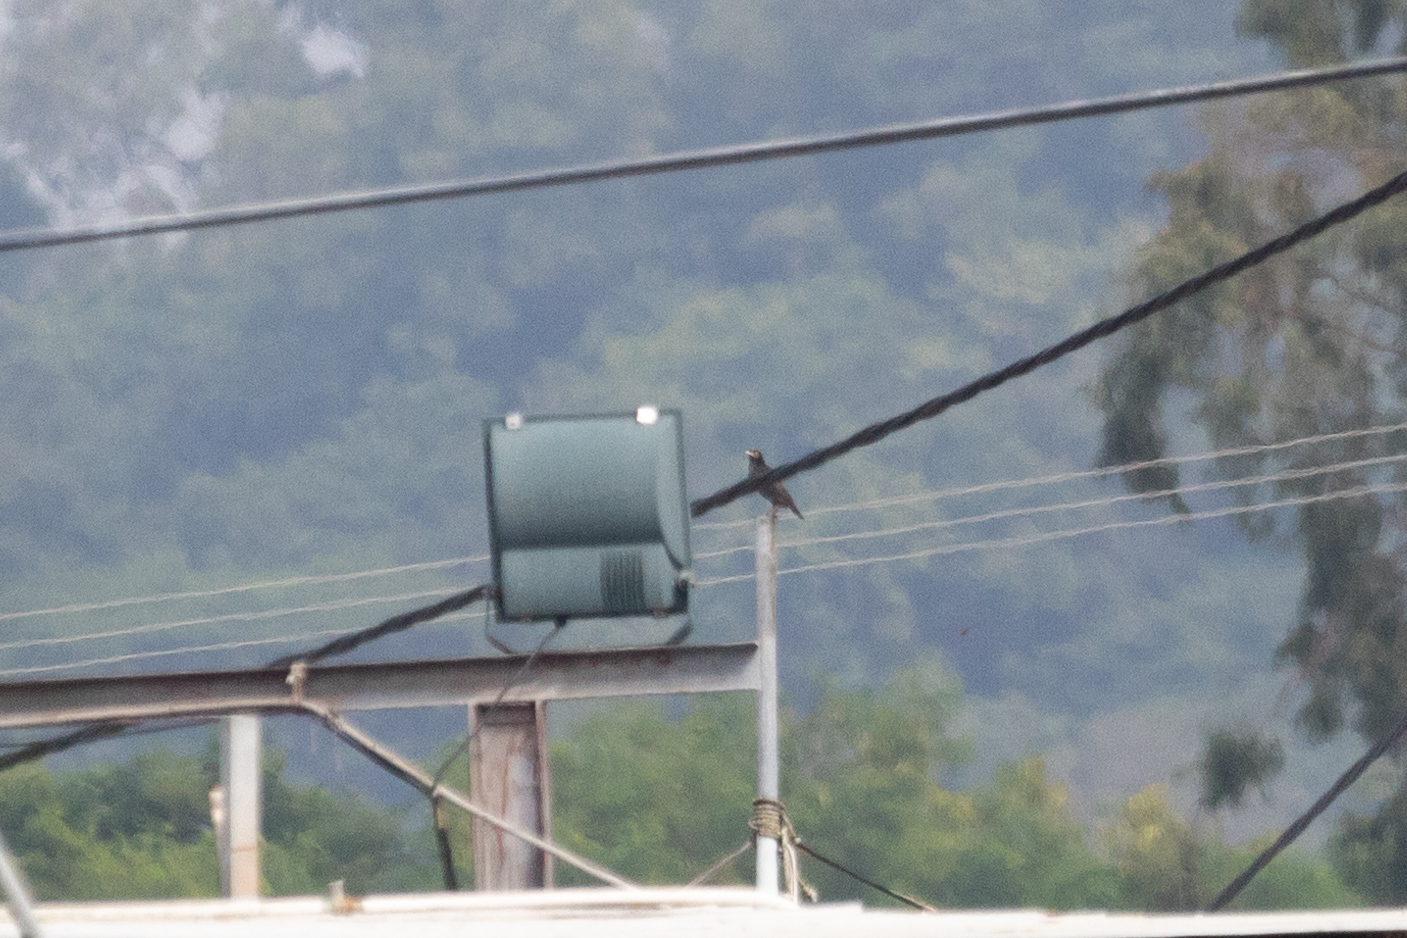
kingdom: Animalia
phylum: Chordata
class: Aves
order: Passeriformes
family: Sturnidae
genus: Acridotheres
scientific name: Acridotheres cristatellus
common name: Crested myna
